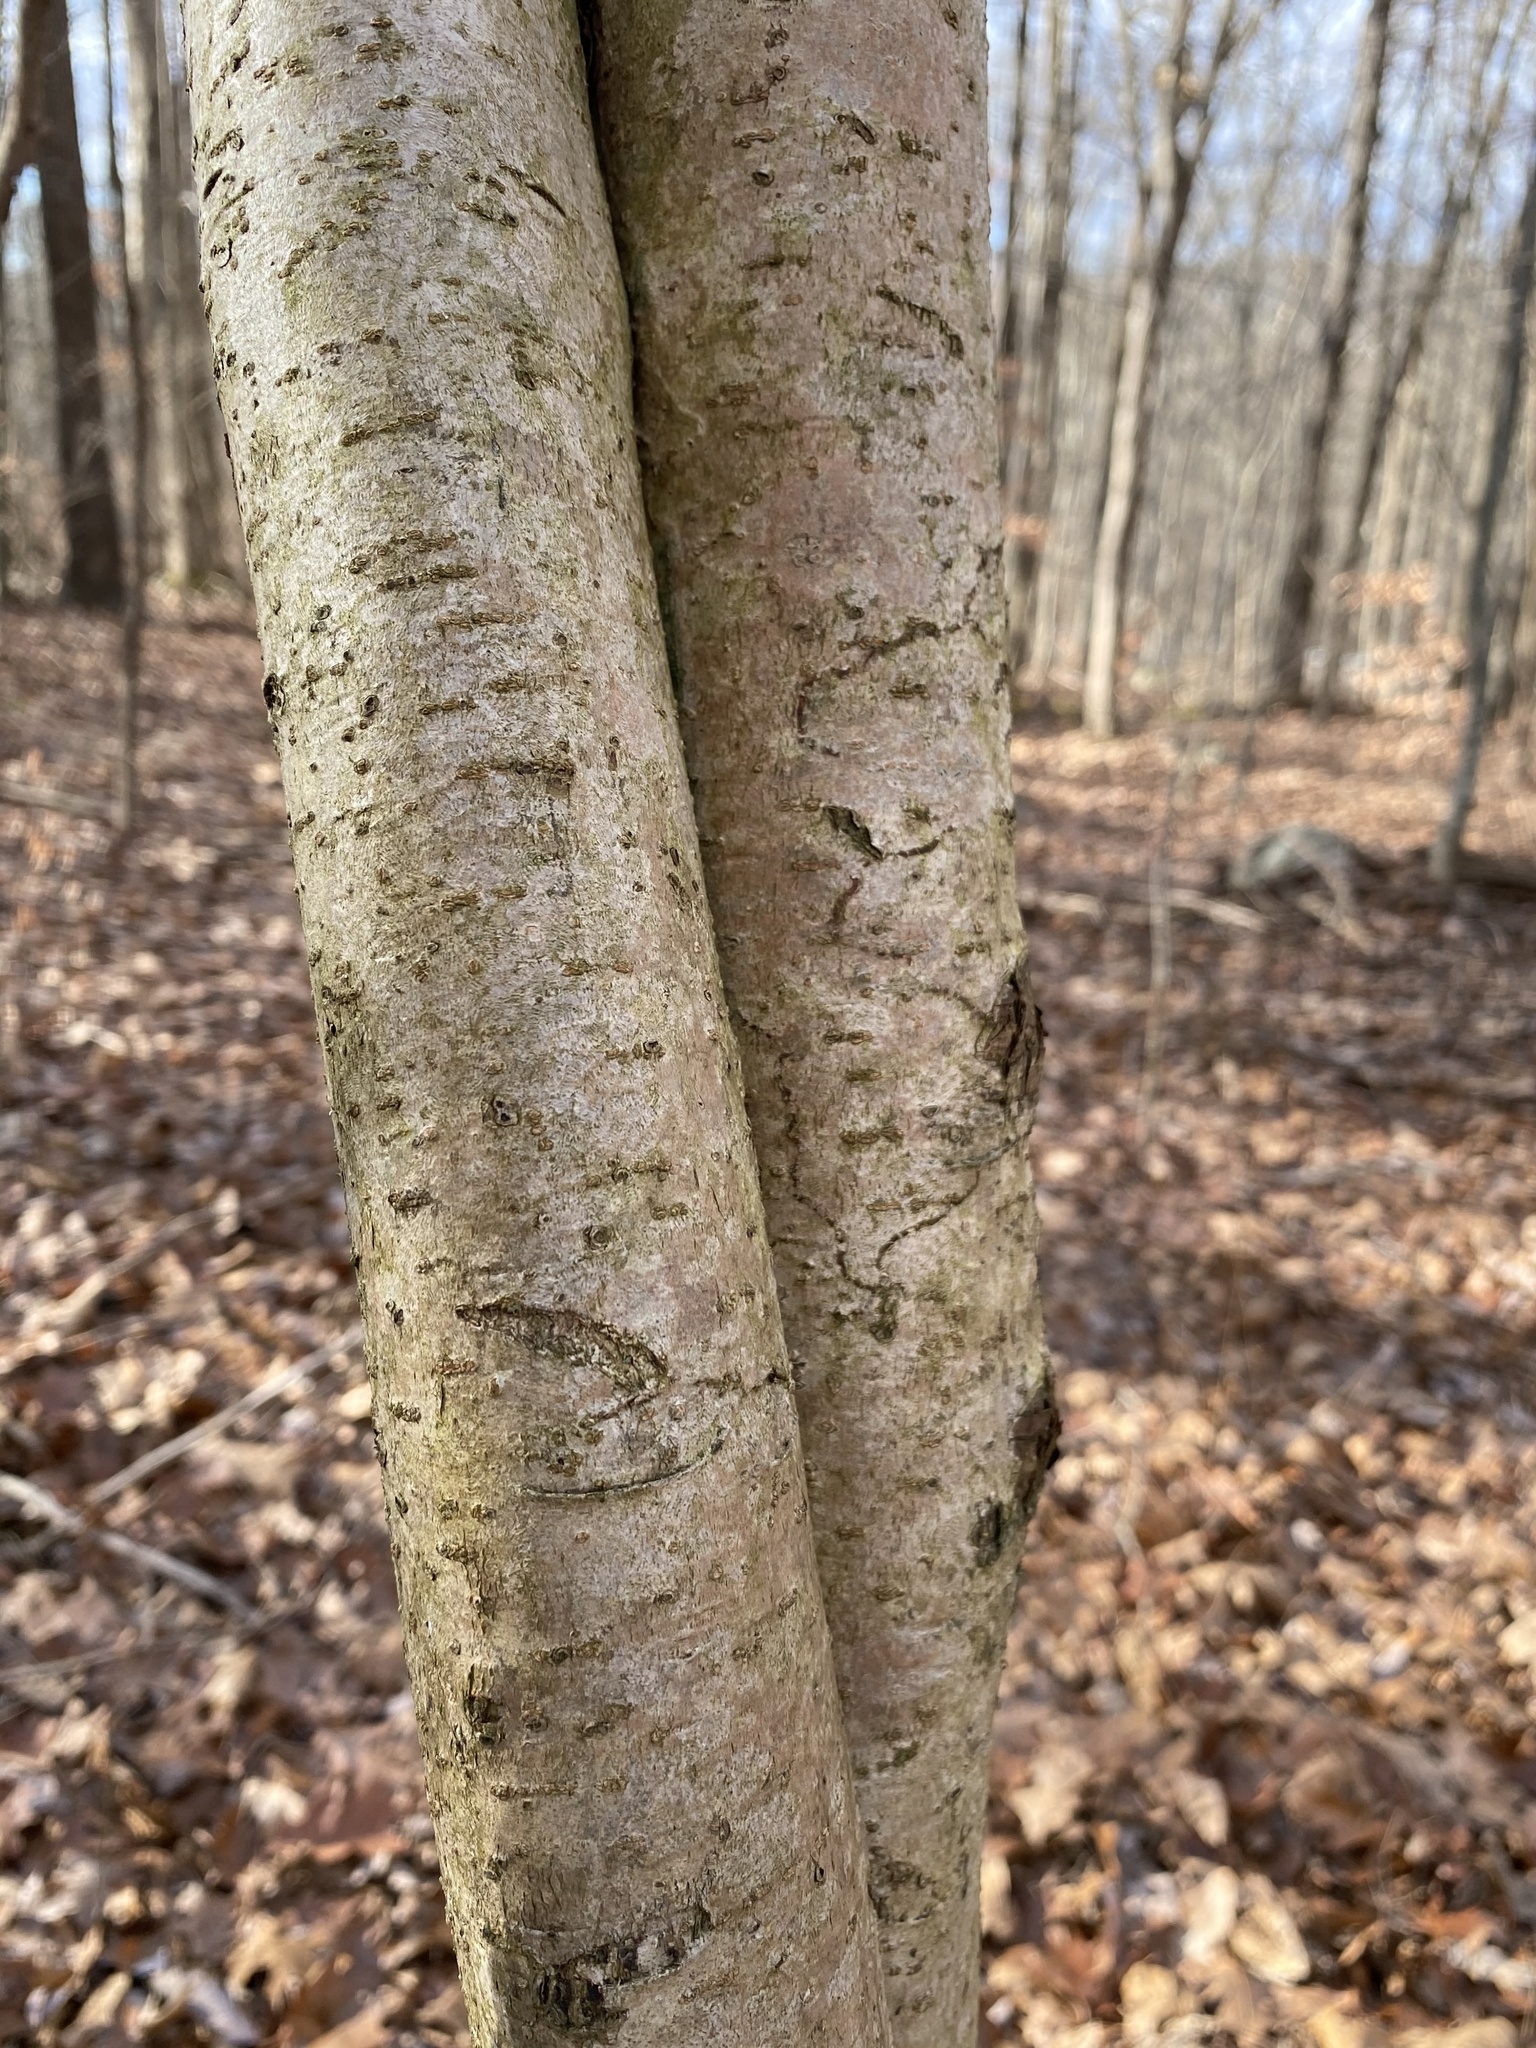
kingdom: Plantae
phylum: Tracheophyta
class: Magnoliopsida
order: Saxifragales
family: Hamamelidaceae
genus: Hamamelis
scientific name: Hamamelis virginiana
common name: Witch-hazel
